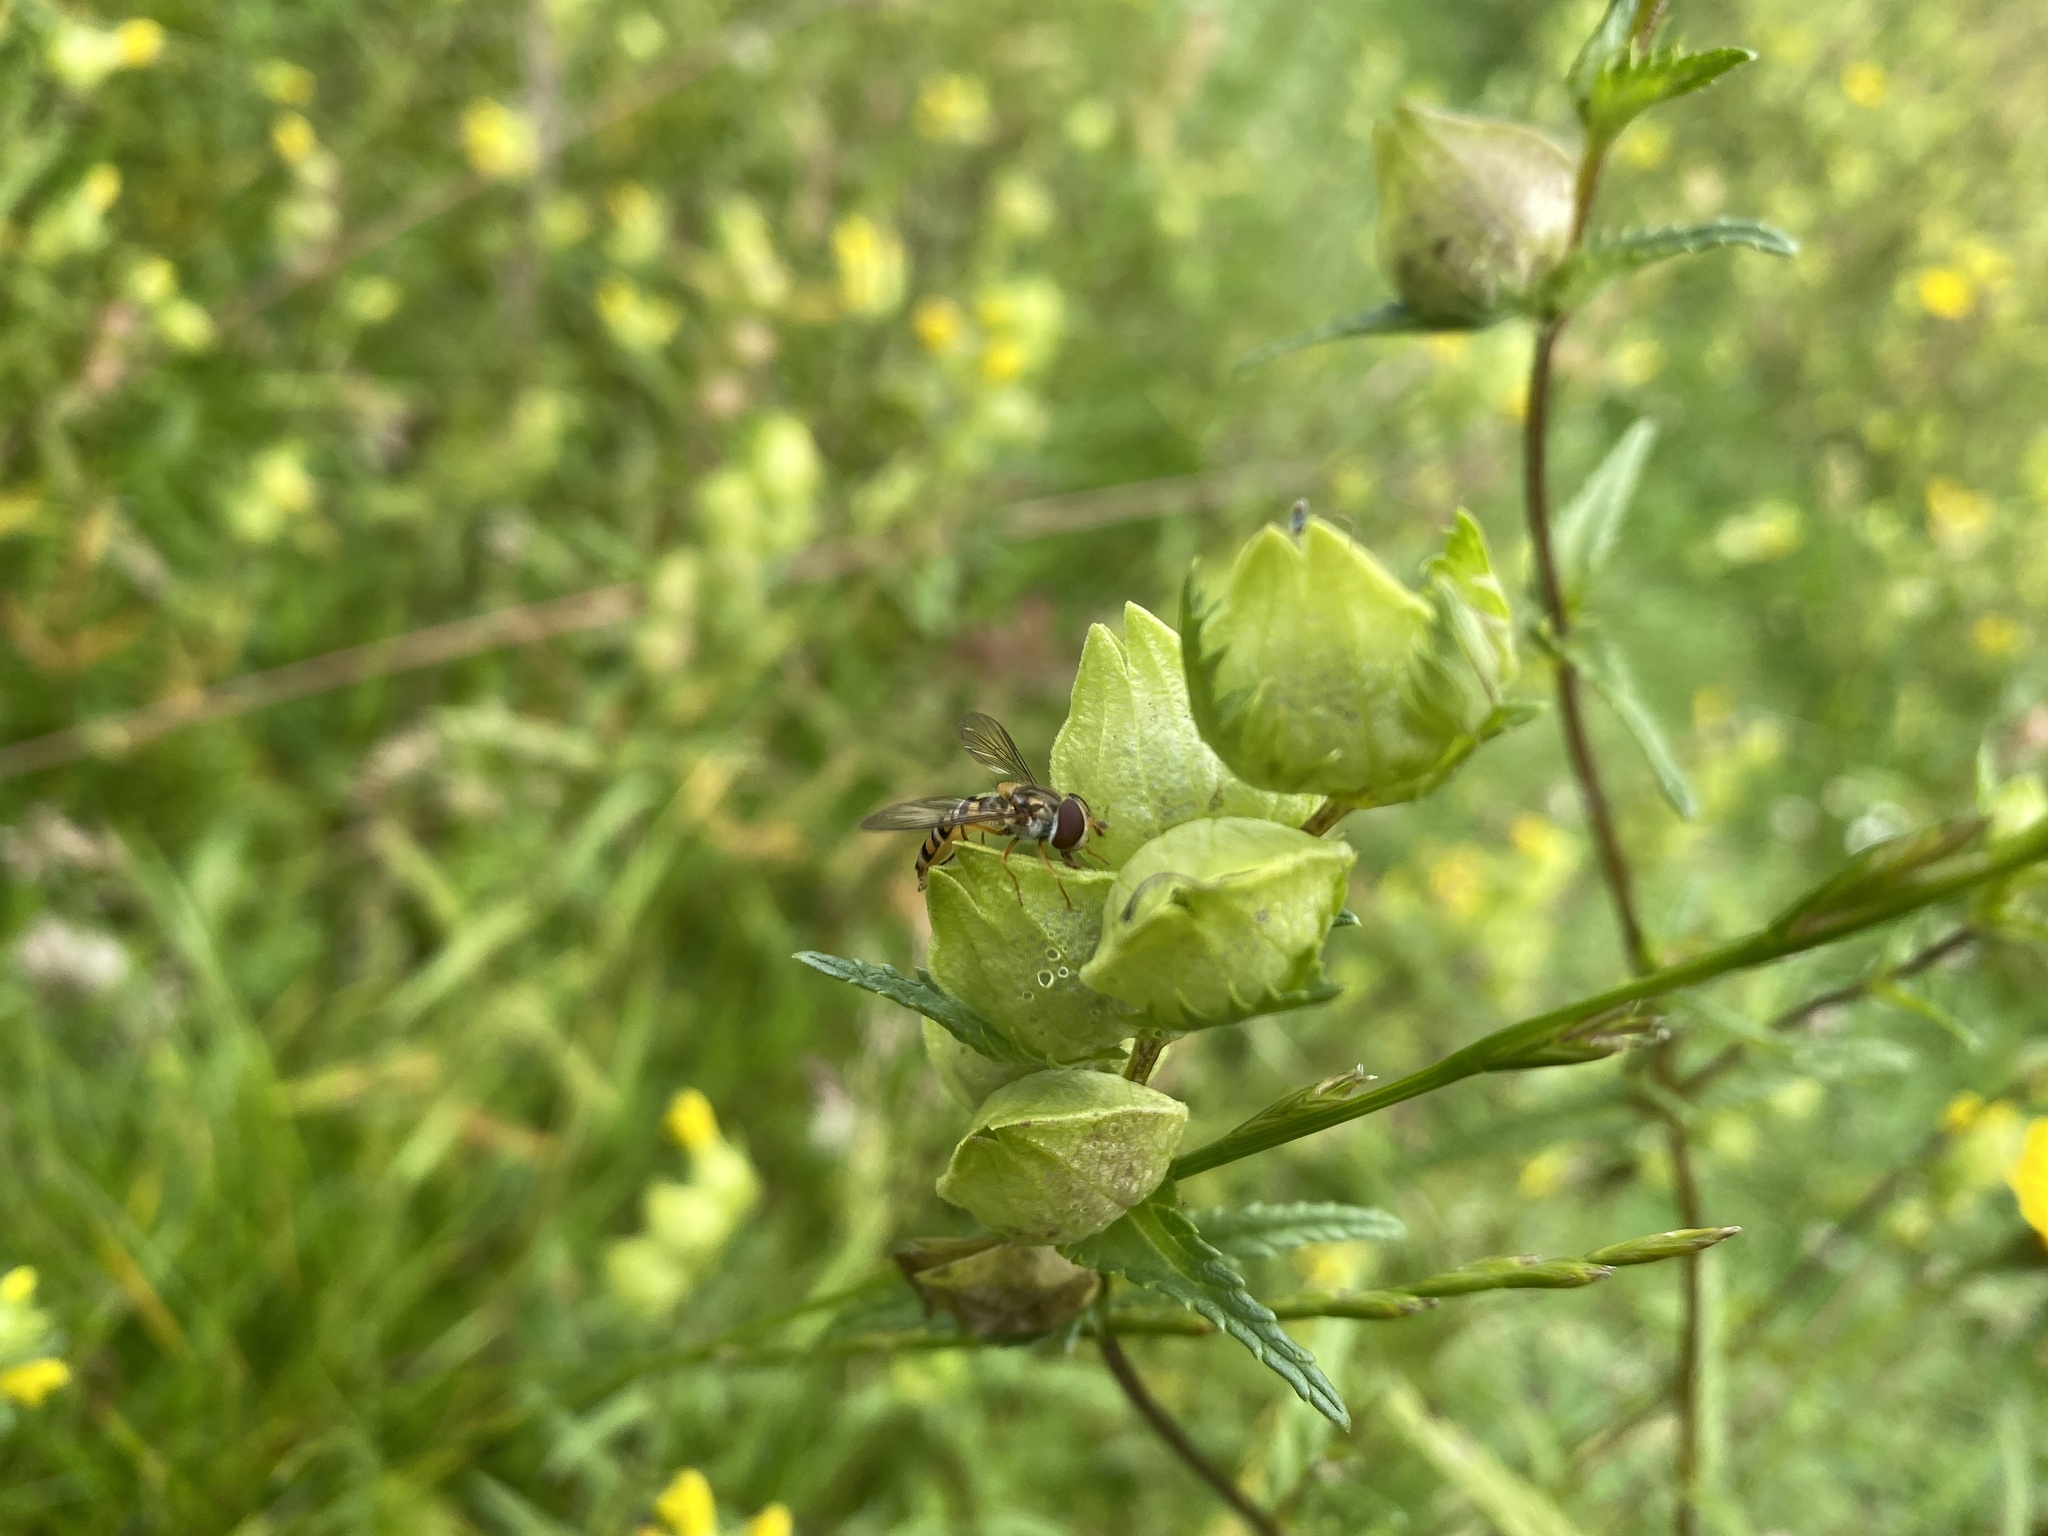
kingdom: Animalia
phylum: Arthropoda
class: Insecta
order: Diptera
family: Syrphidae
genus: Episyrphus
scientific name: Episyrphus balteatus
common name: Marmalade hoverfly
